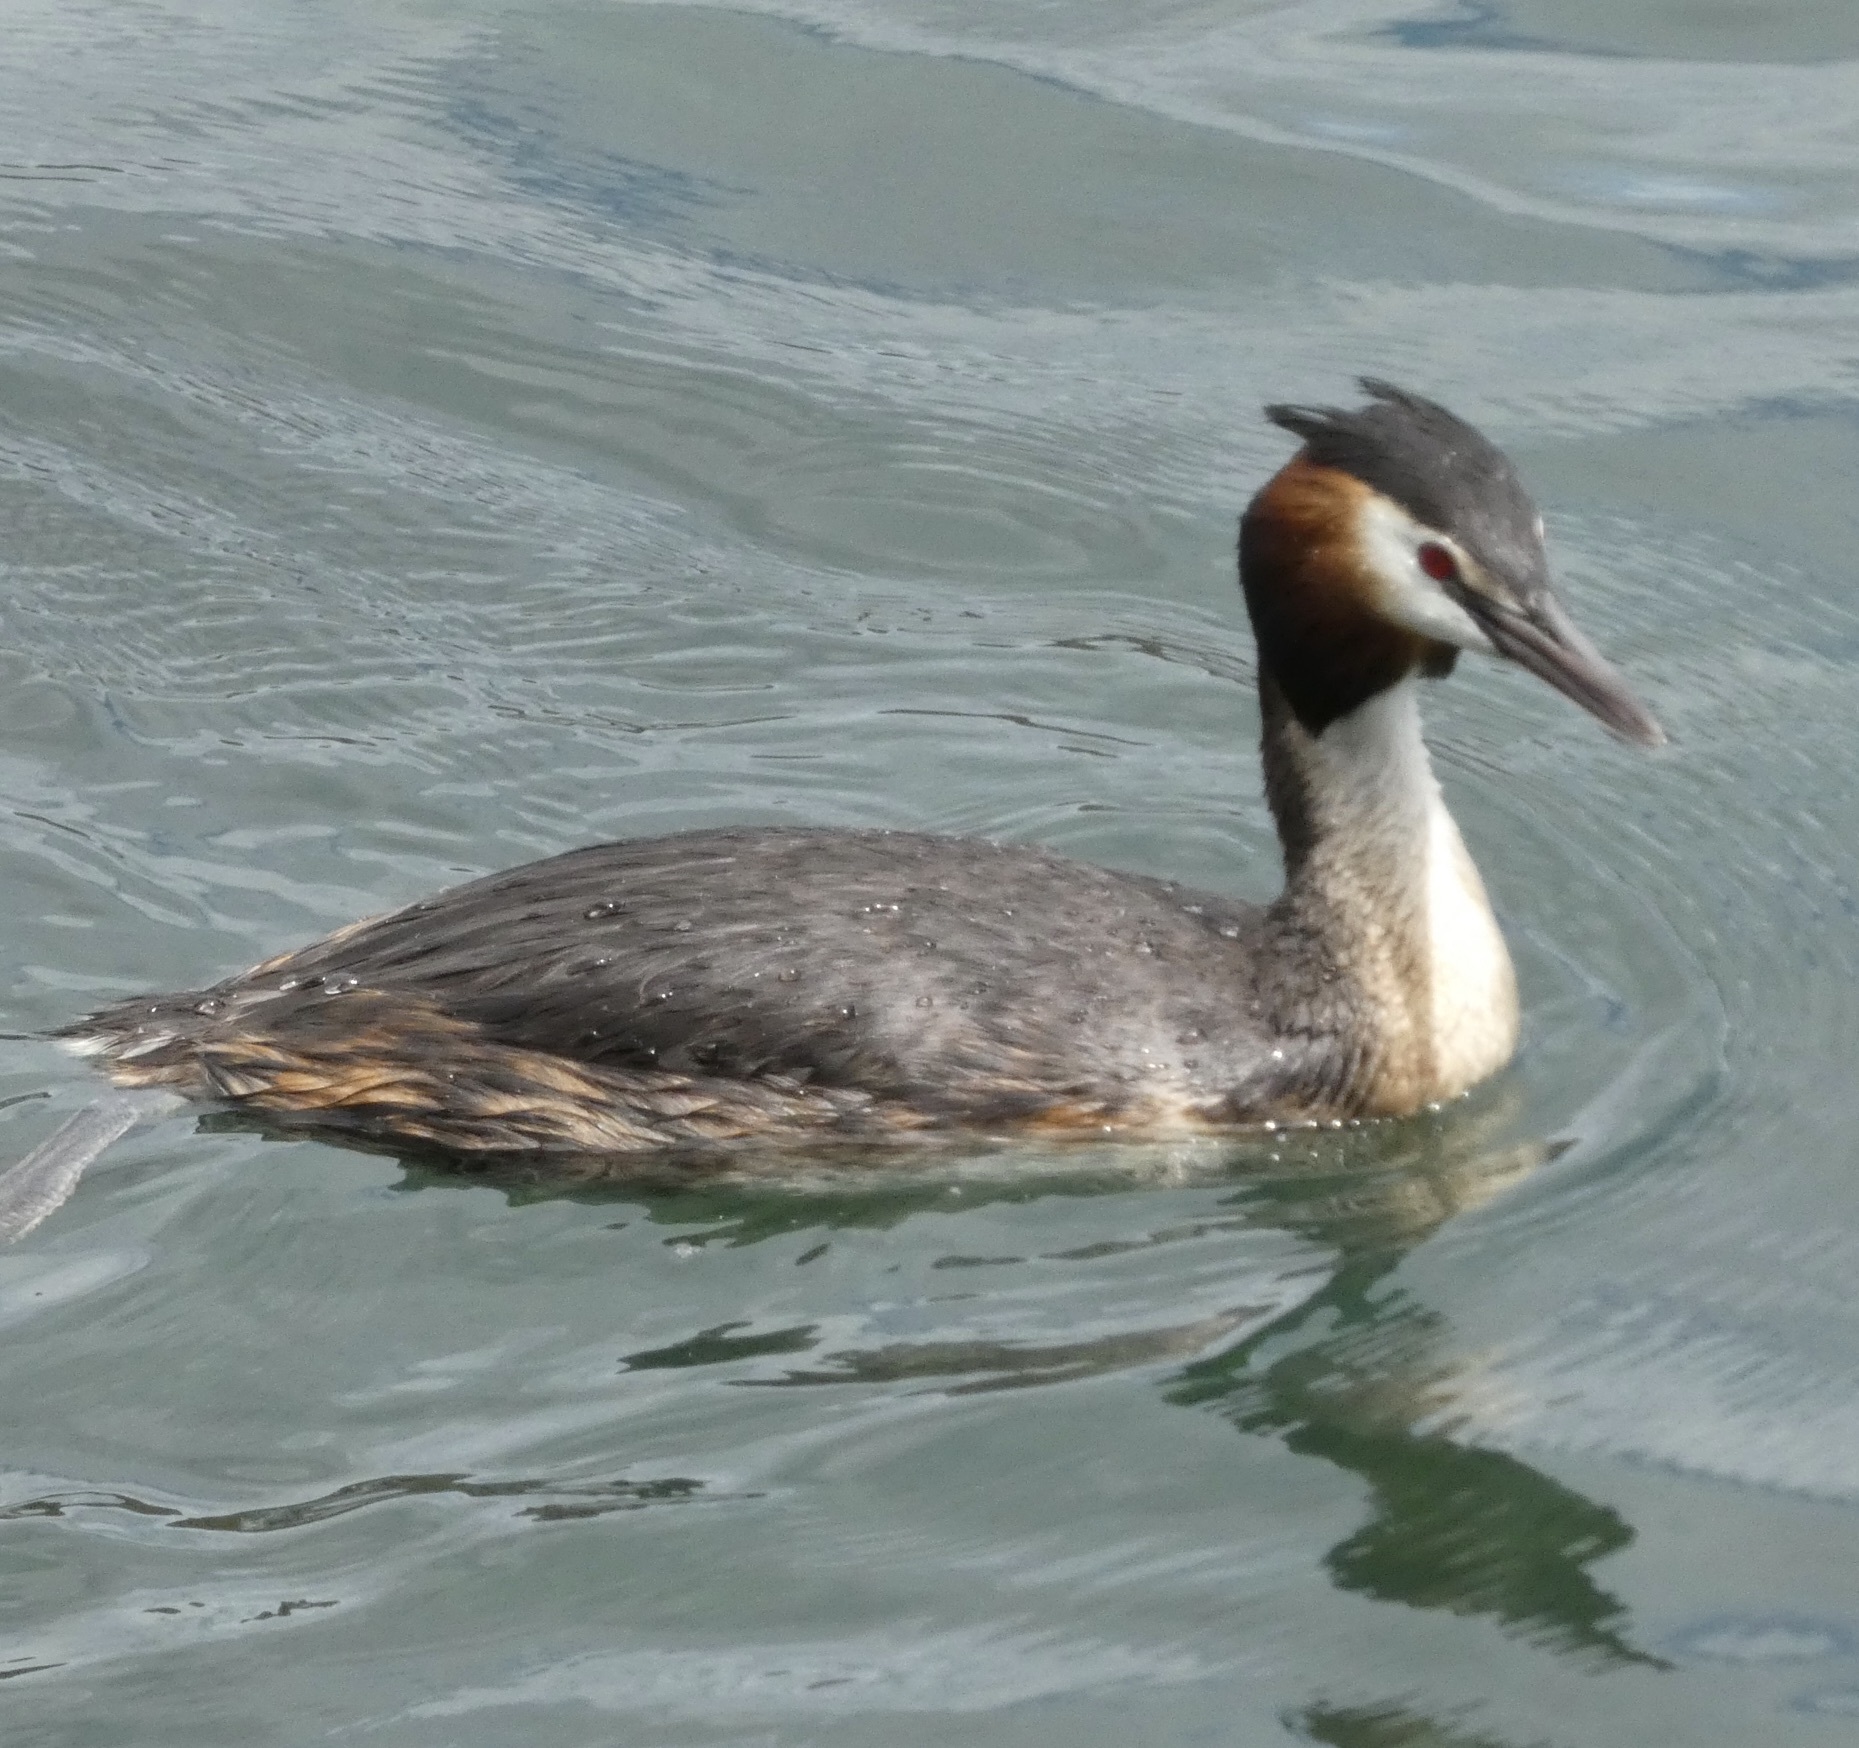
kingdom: Animalia
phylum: Chordata
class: Aves
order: Podicipediformes
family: Podicipedidae
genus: Podiceps
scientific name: Podiceps cristatus
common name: Great crested grebe
